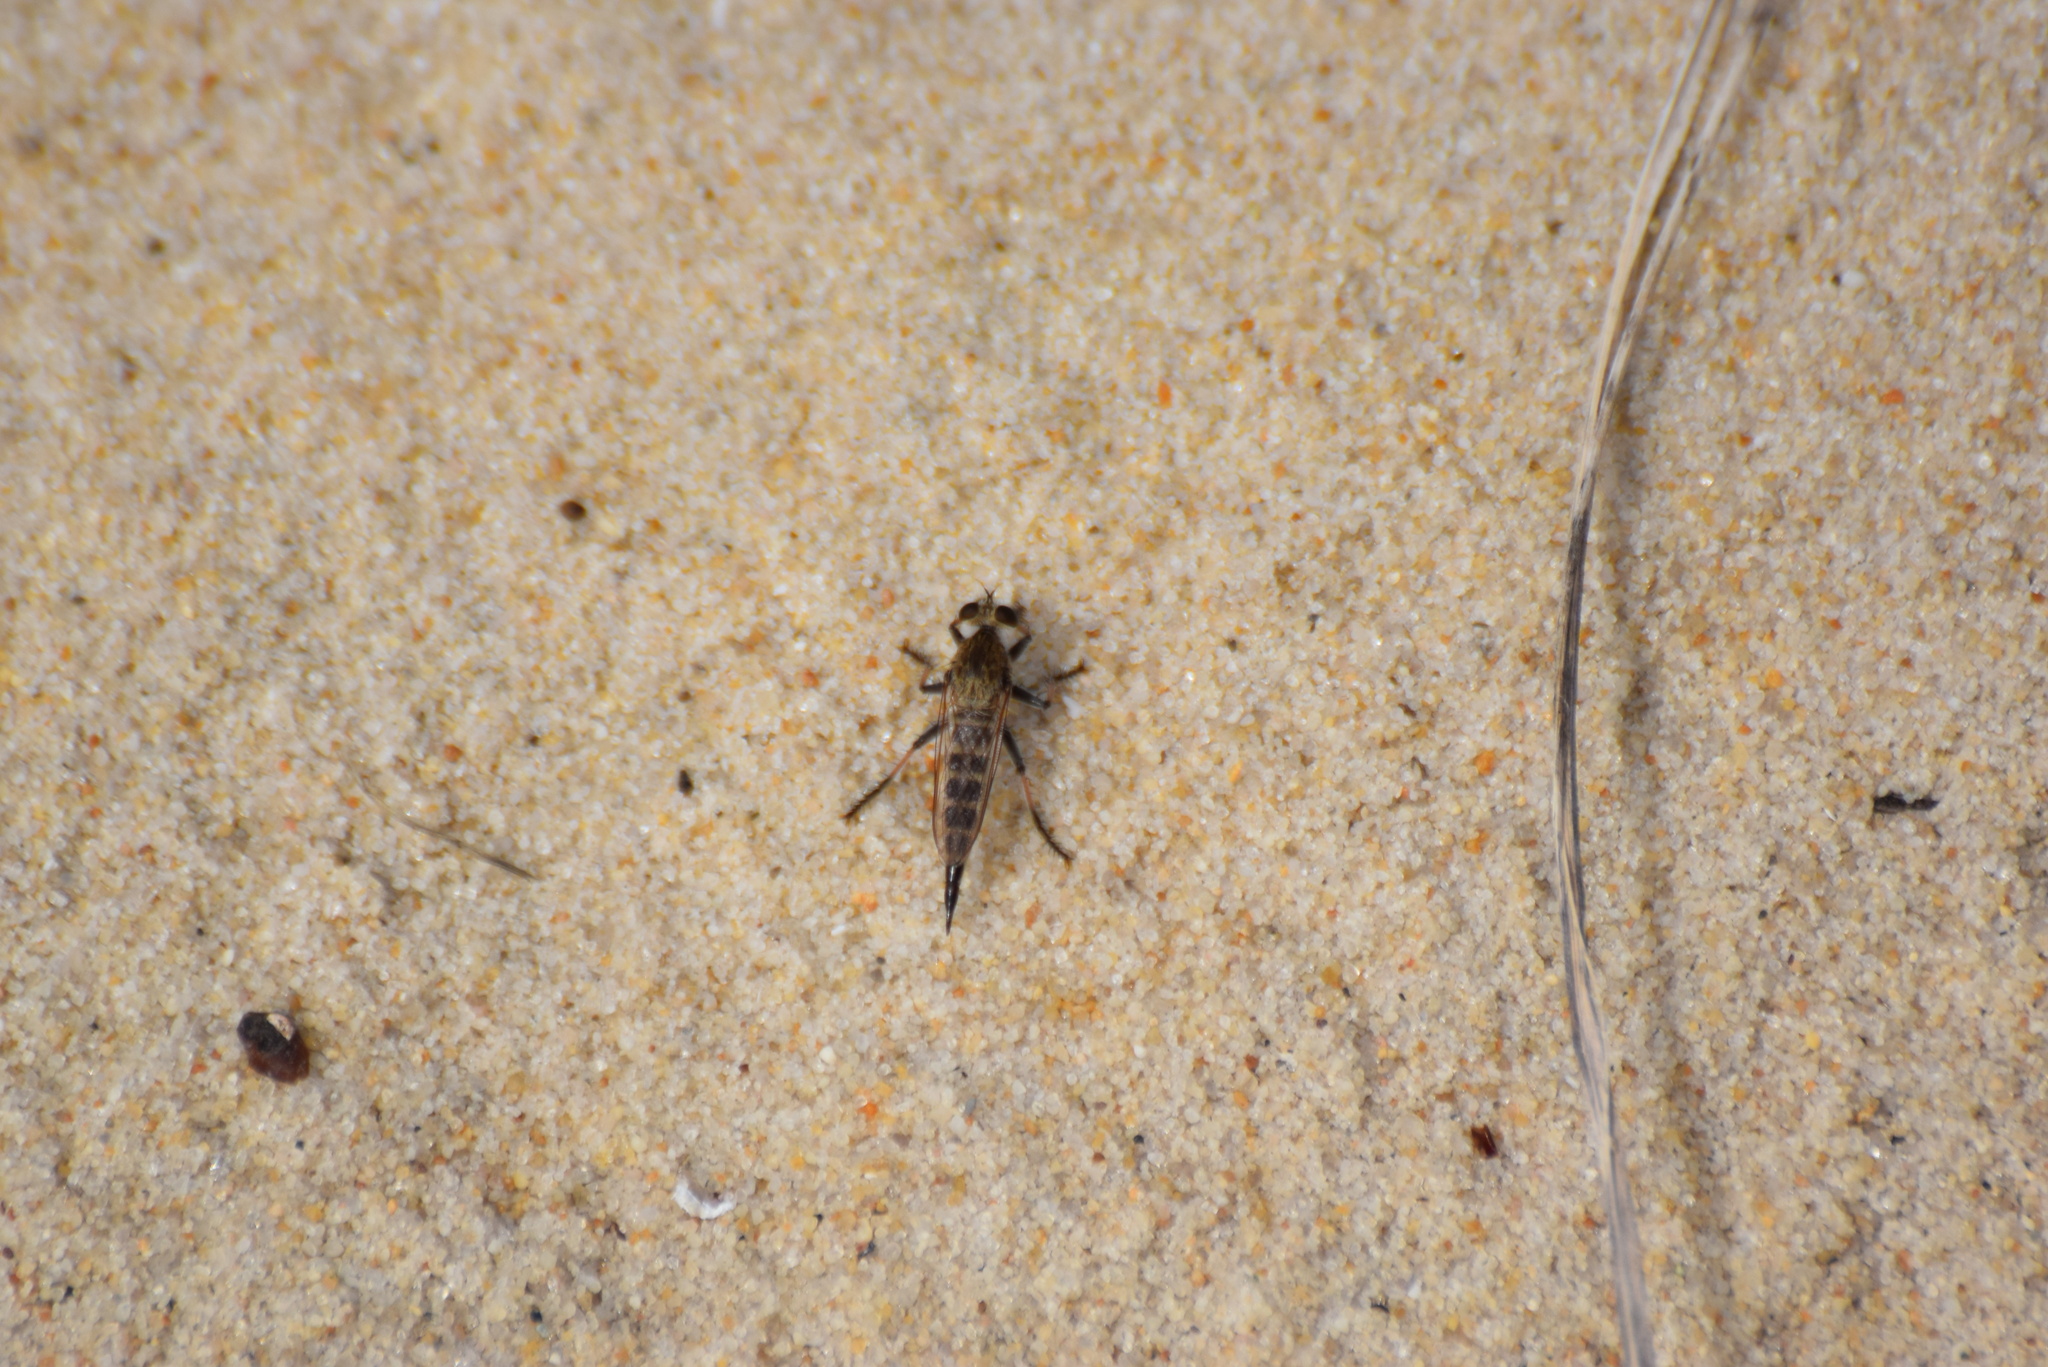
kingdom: Animalia
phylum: Arthropoda
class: Insecta
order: Diptera
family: Asilidae
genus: Efferia
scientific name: Efferia albibarbis
